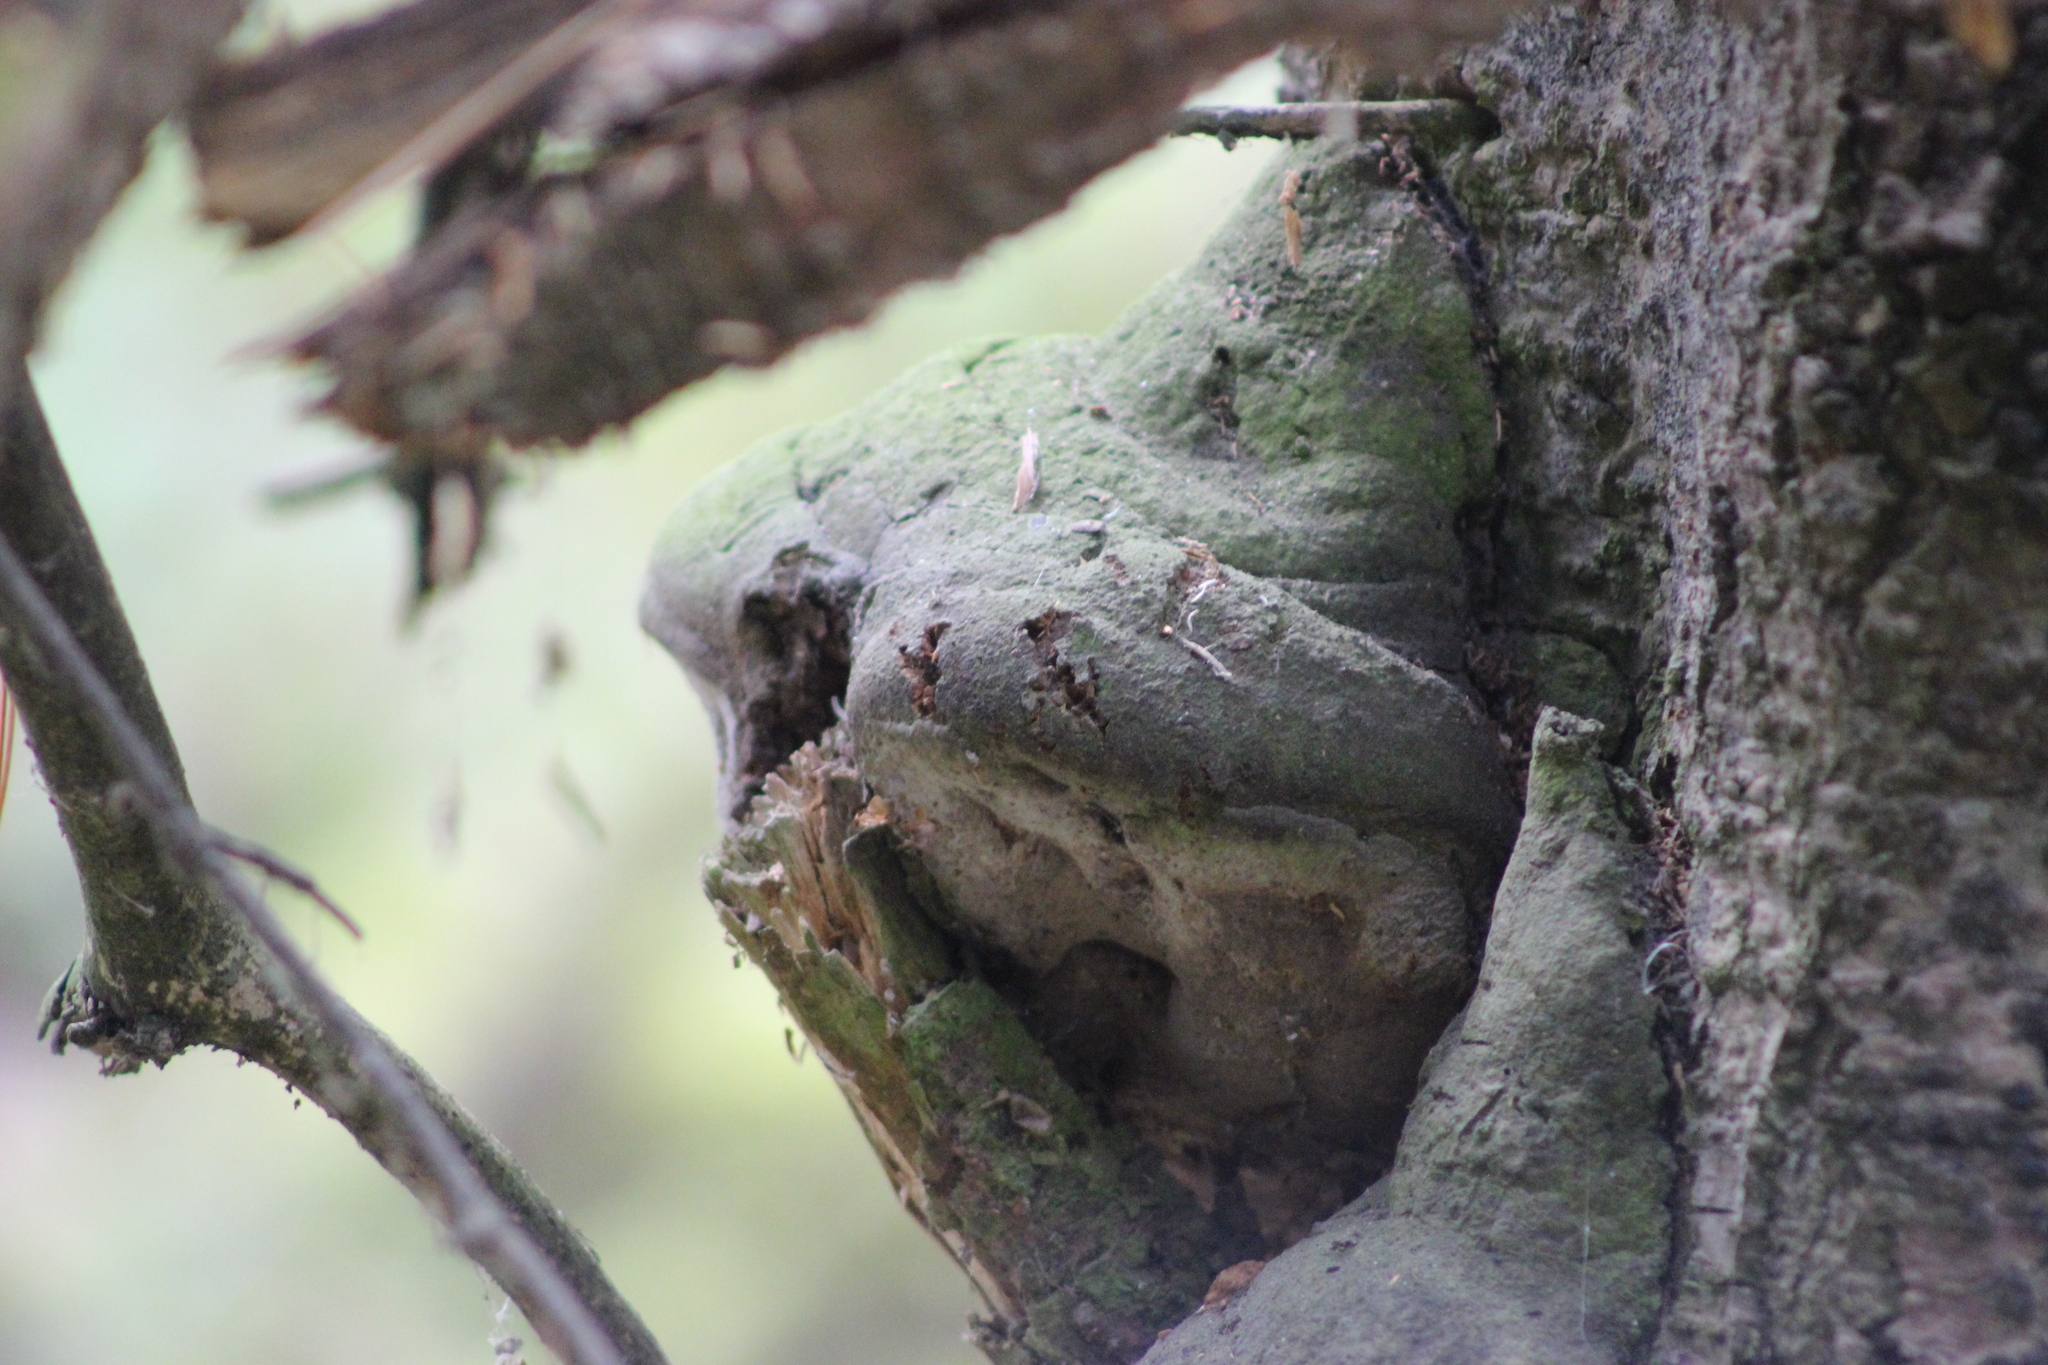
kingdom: Fungi
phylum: Basidiomycota
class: Agaricomycetes
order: Hymenochaetales
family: Hymenochaetaceae
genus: Phellinus
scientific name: Phellinus hartigii
